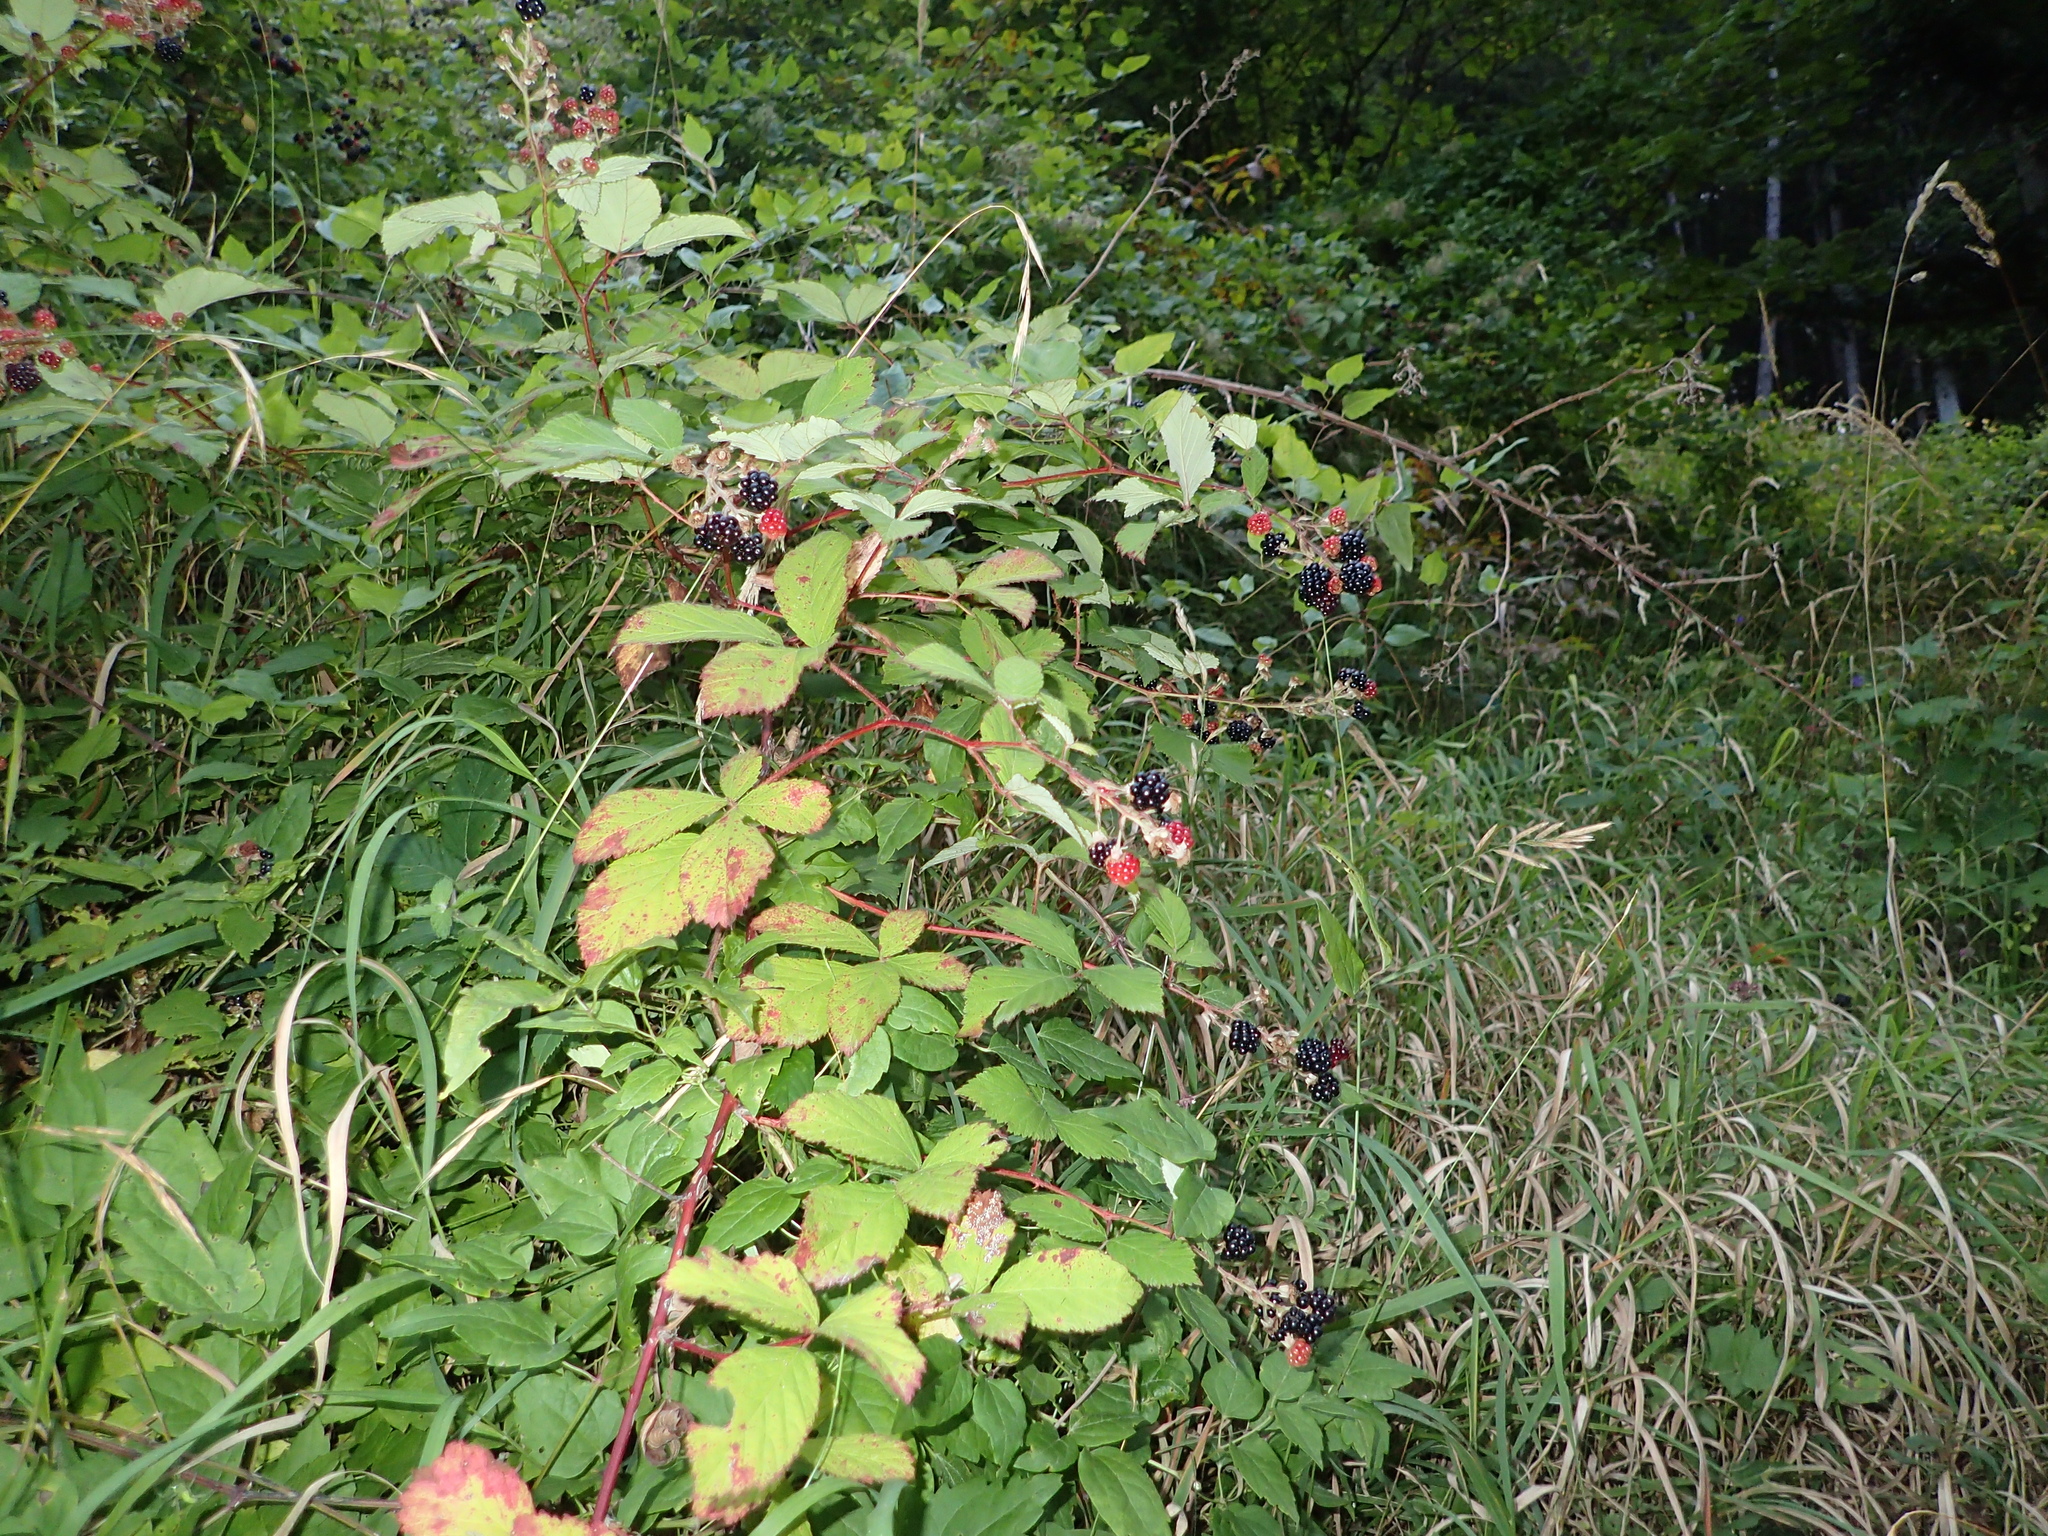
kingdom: Plantae
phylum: Tracheophyta
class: Magnoliopsida
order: Rosales
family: Rosaceae
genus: Rubus
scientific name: Rubus
